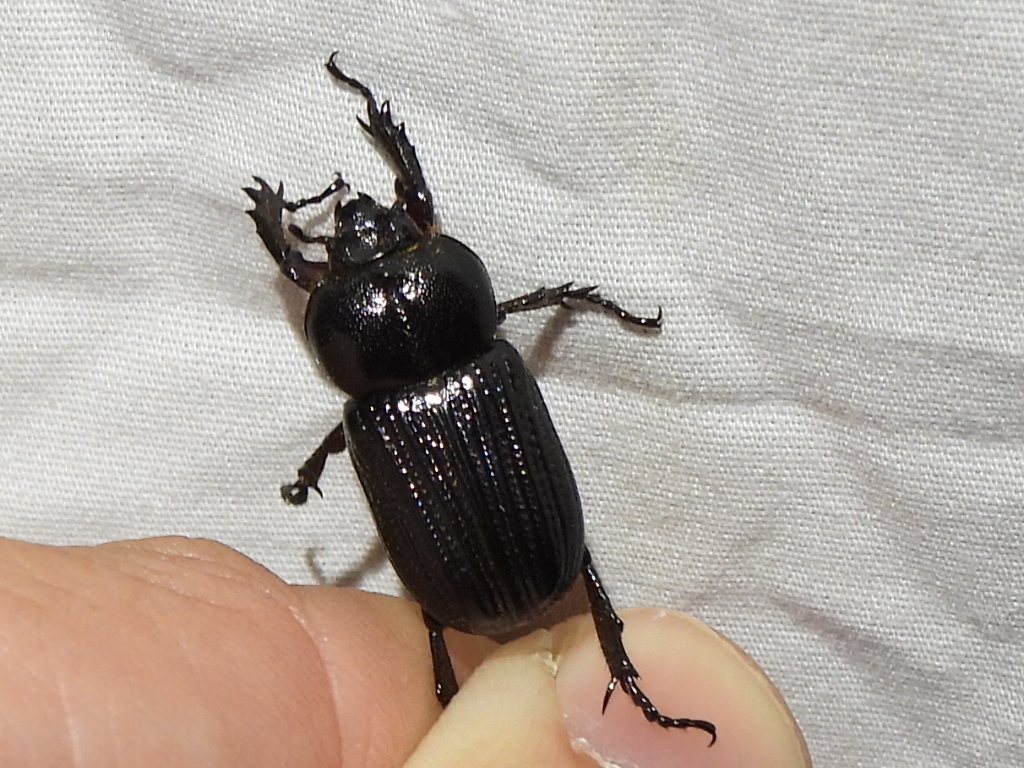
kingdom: Animalia
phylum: Arthropoda
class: Insecta
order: Coleoptera
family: Scarabaeidae
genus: Phileurus
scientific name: Phileurus valgus
